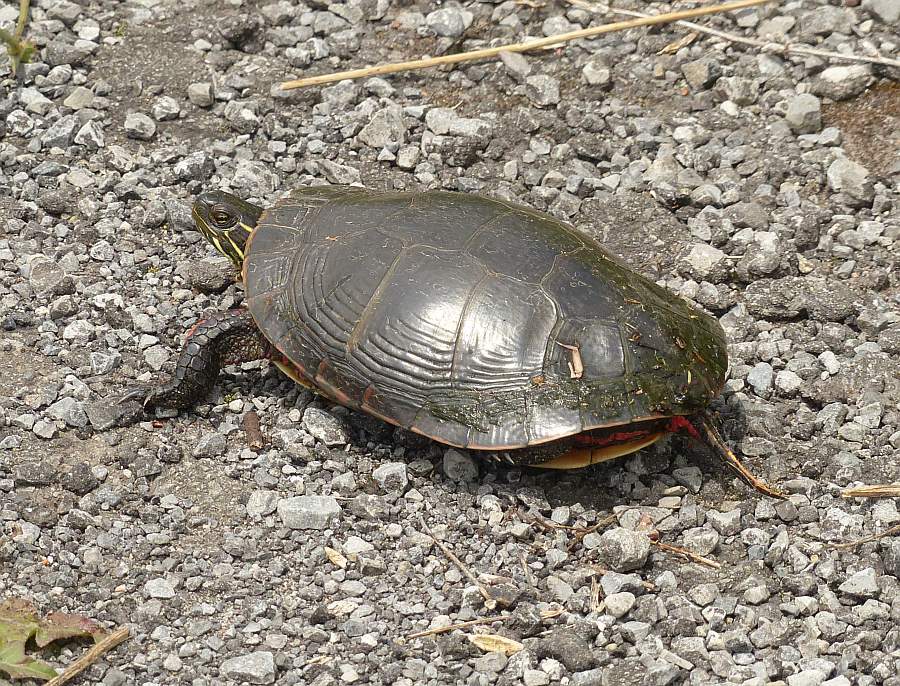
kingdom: Animalia
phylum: Chordata
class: Testudines
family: Emydidae
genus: Chrysemys
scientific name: Chrysemys picta
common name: Painted turtle
